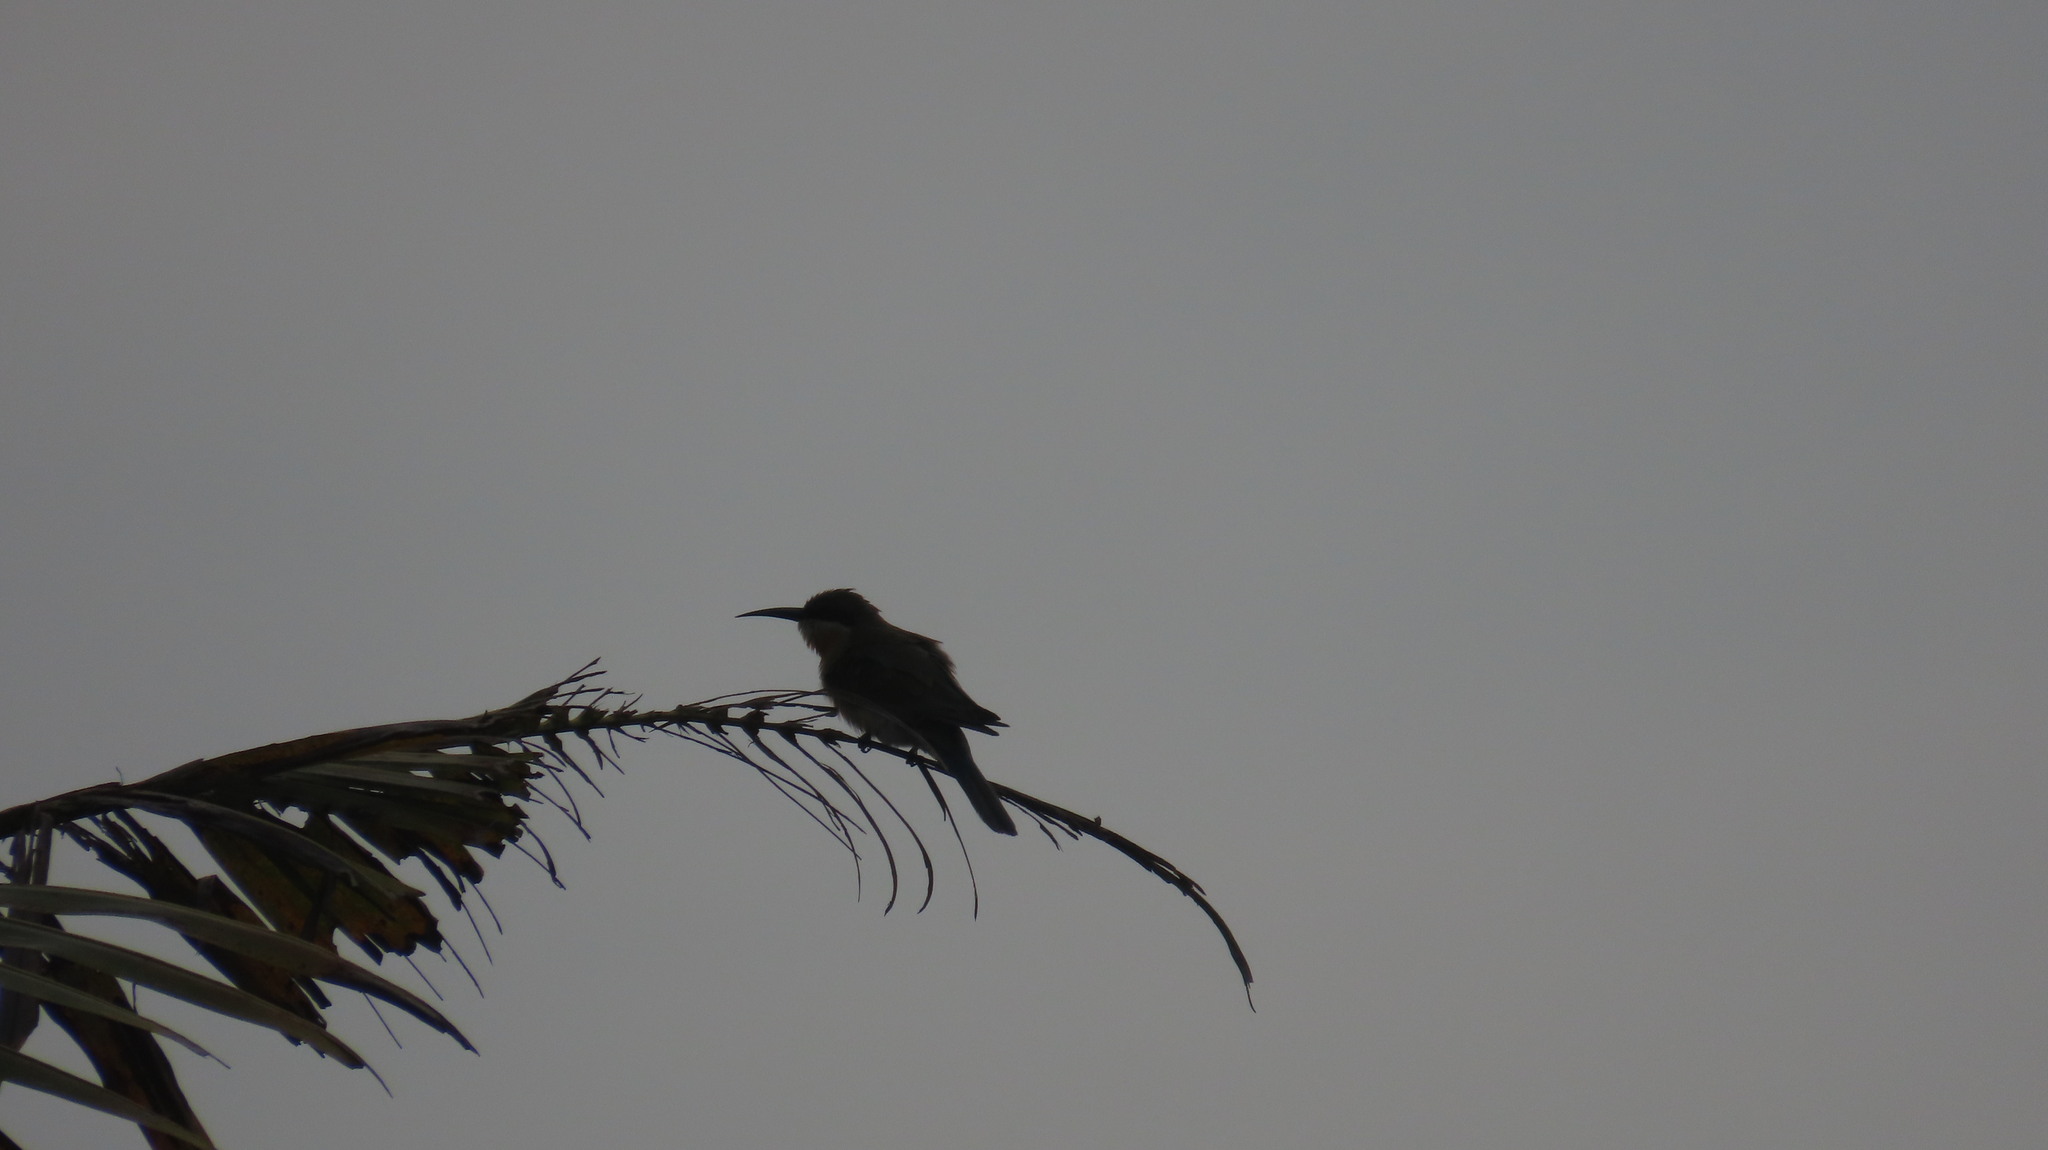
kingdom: Animalia
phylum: Chordata
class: Aves
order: Coraciiformes
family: Meropidae
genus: Merops
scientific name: Merops philippinus
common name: Blue-tailed bee-eater
